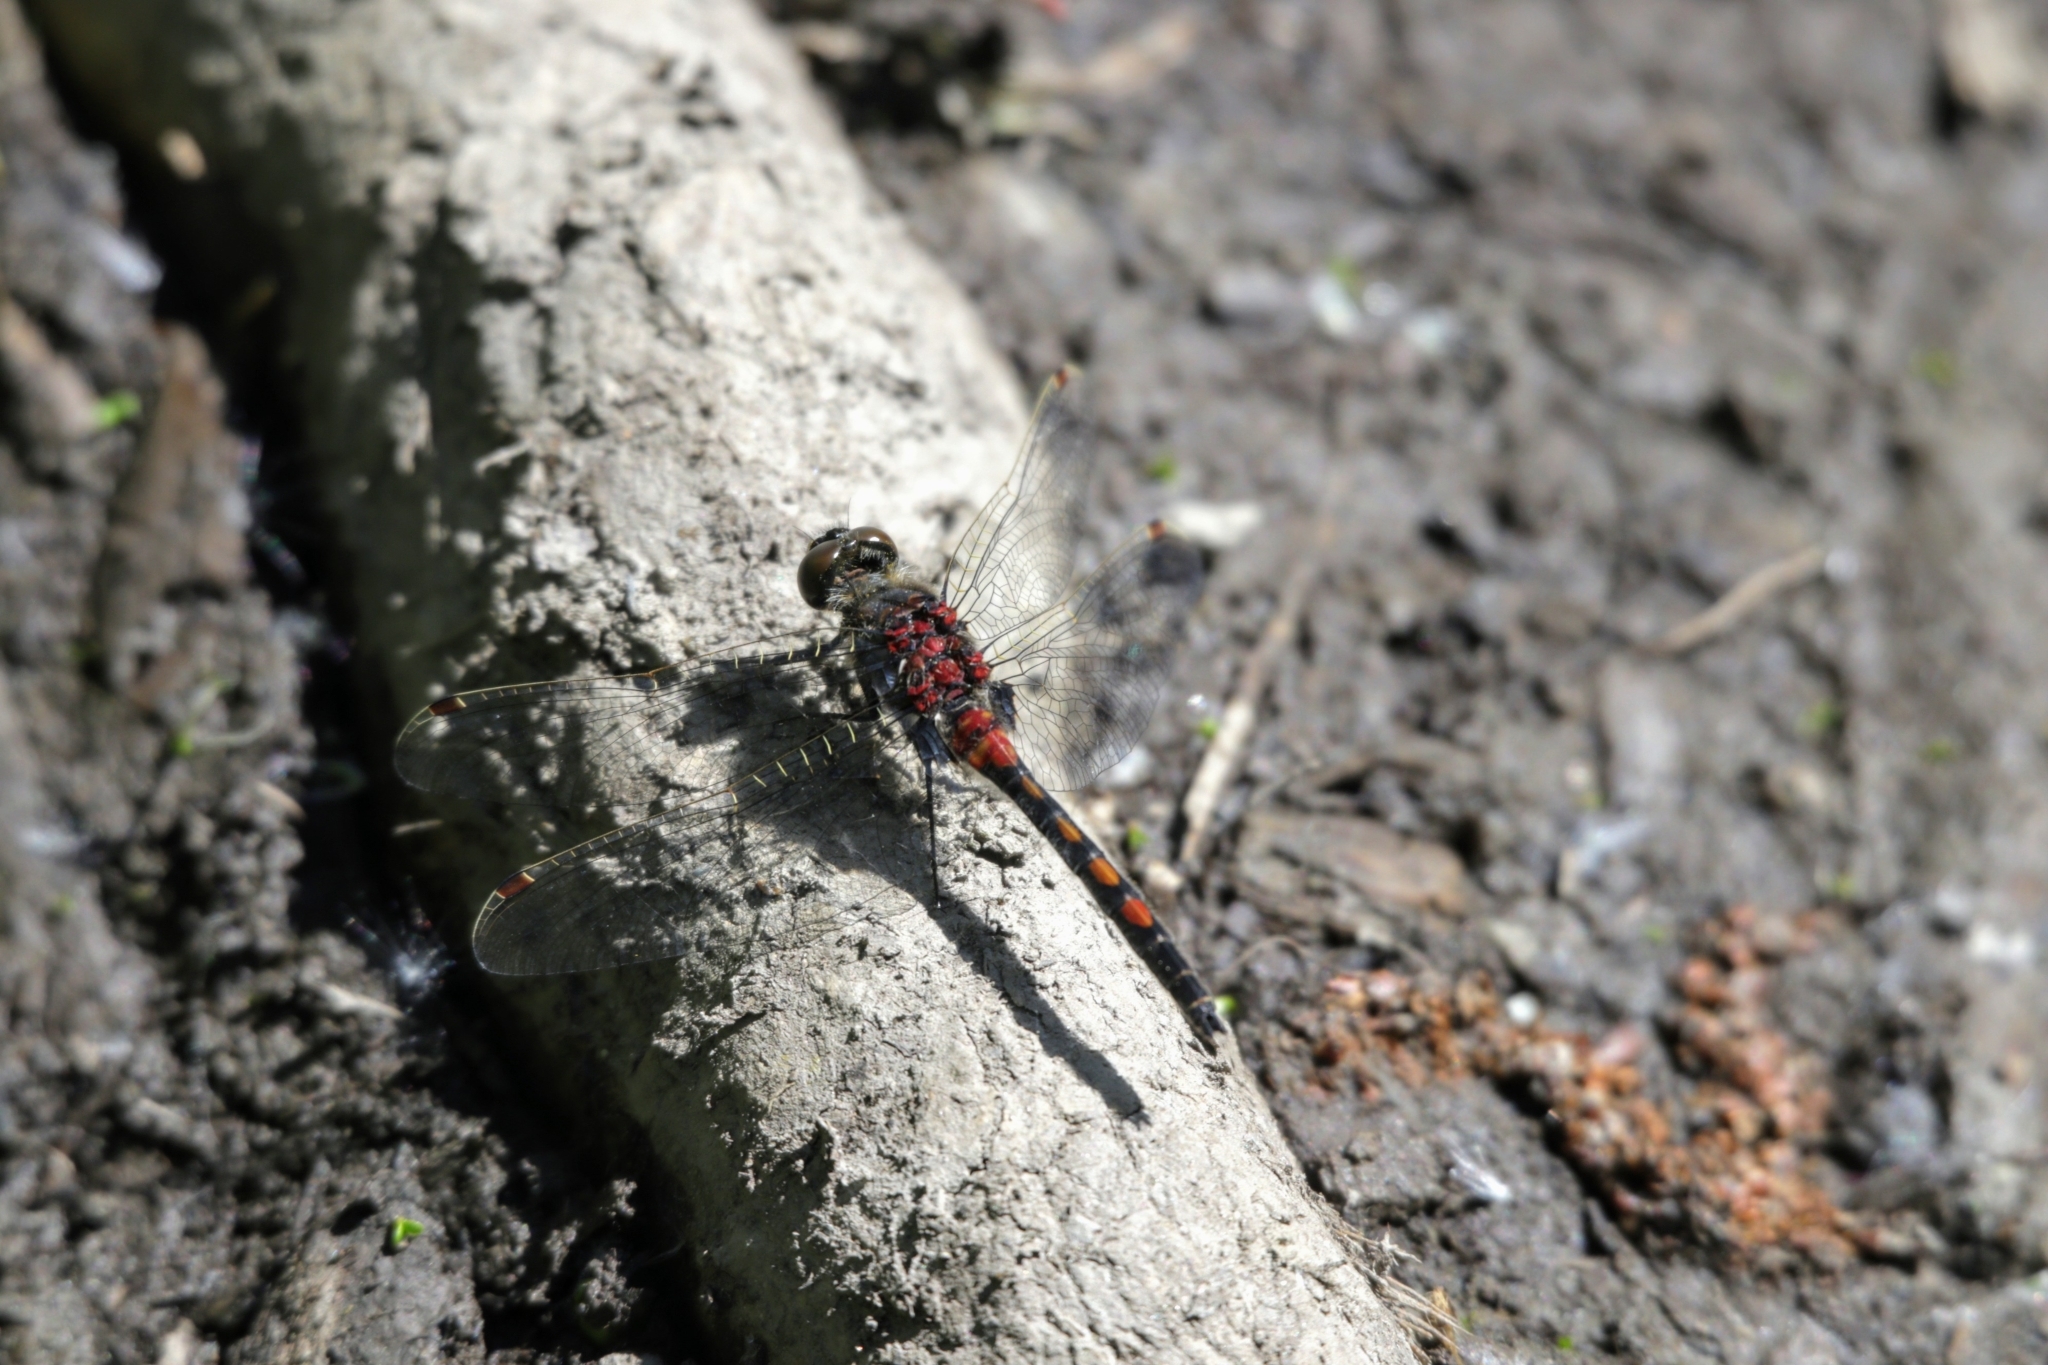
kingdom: Animalia
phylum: Arthropoda
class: Insecta
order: Odonata
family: Libellulidae
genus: Leucorrhinia
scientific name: Leucorrhinia rubicunda
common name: Ruby whiteface
